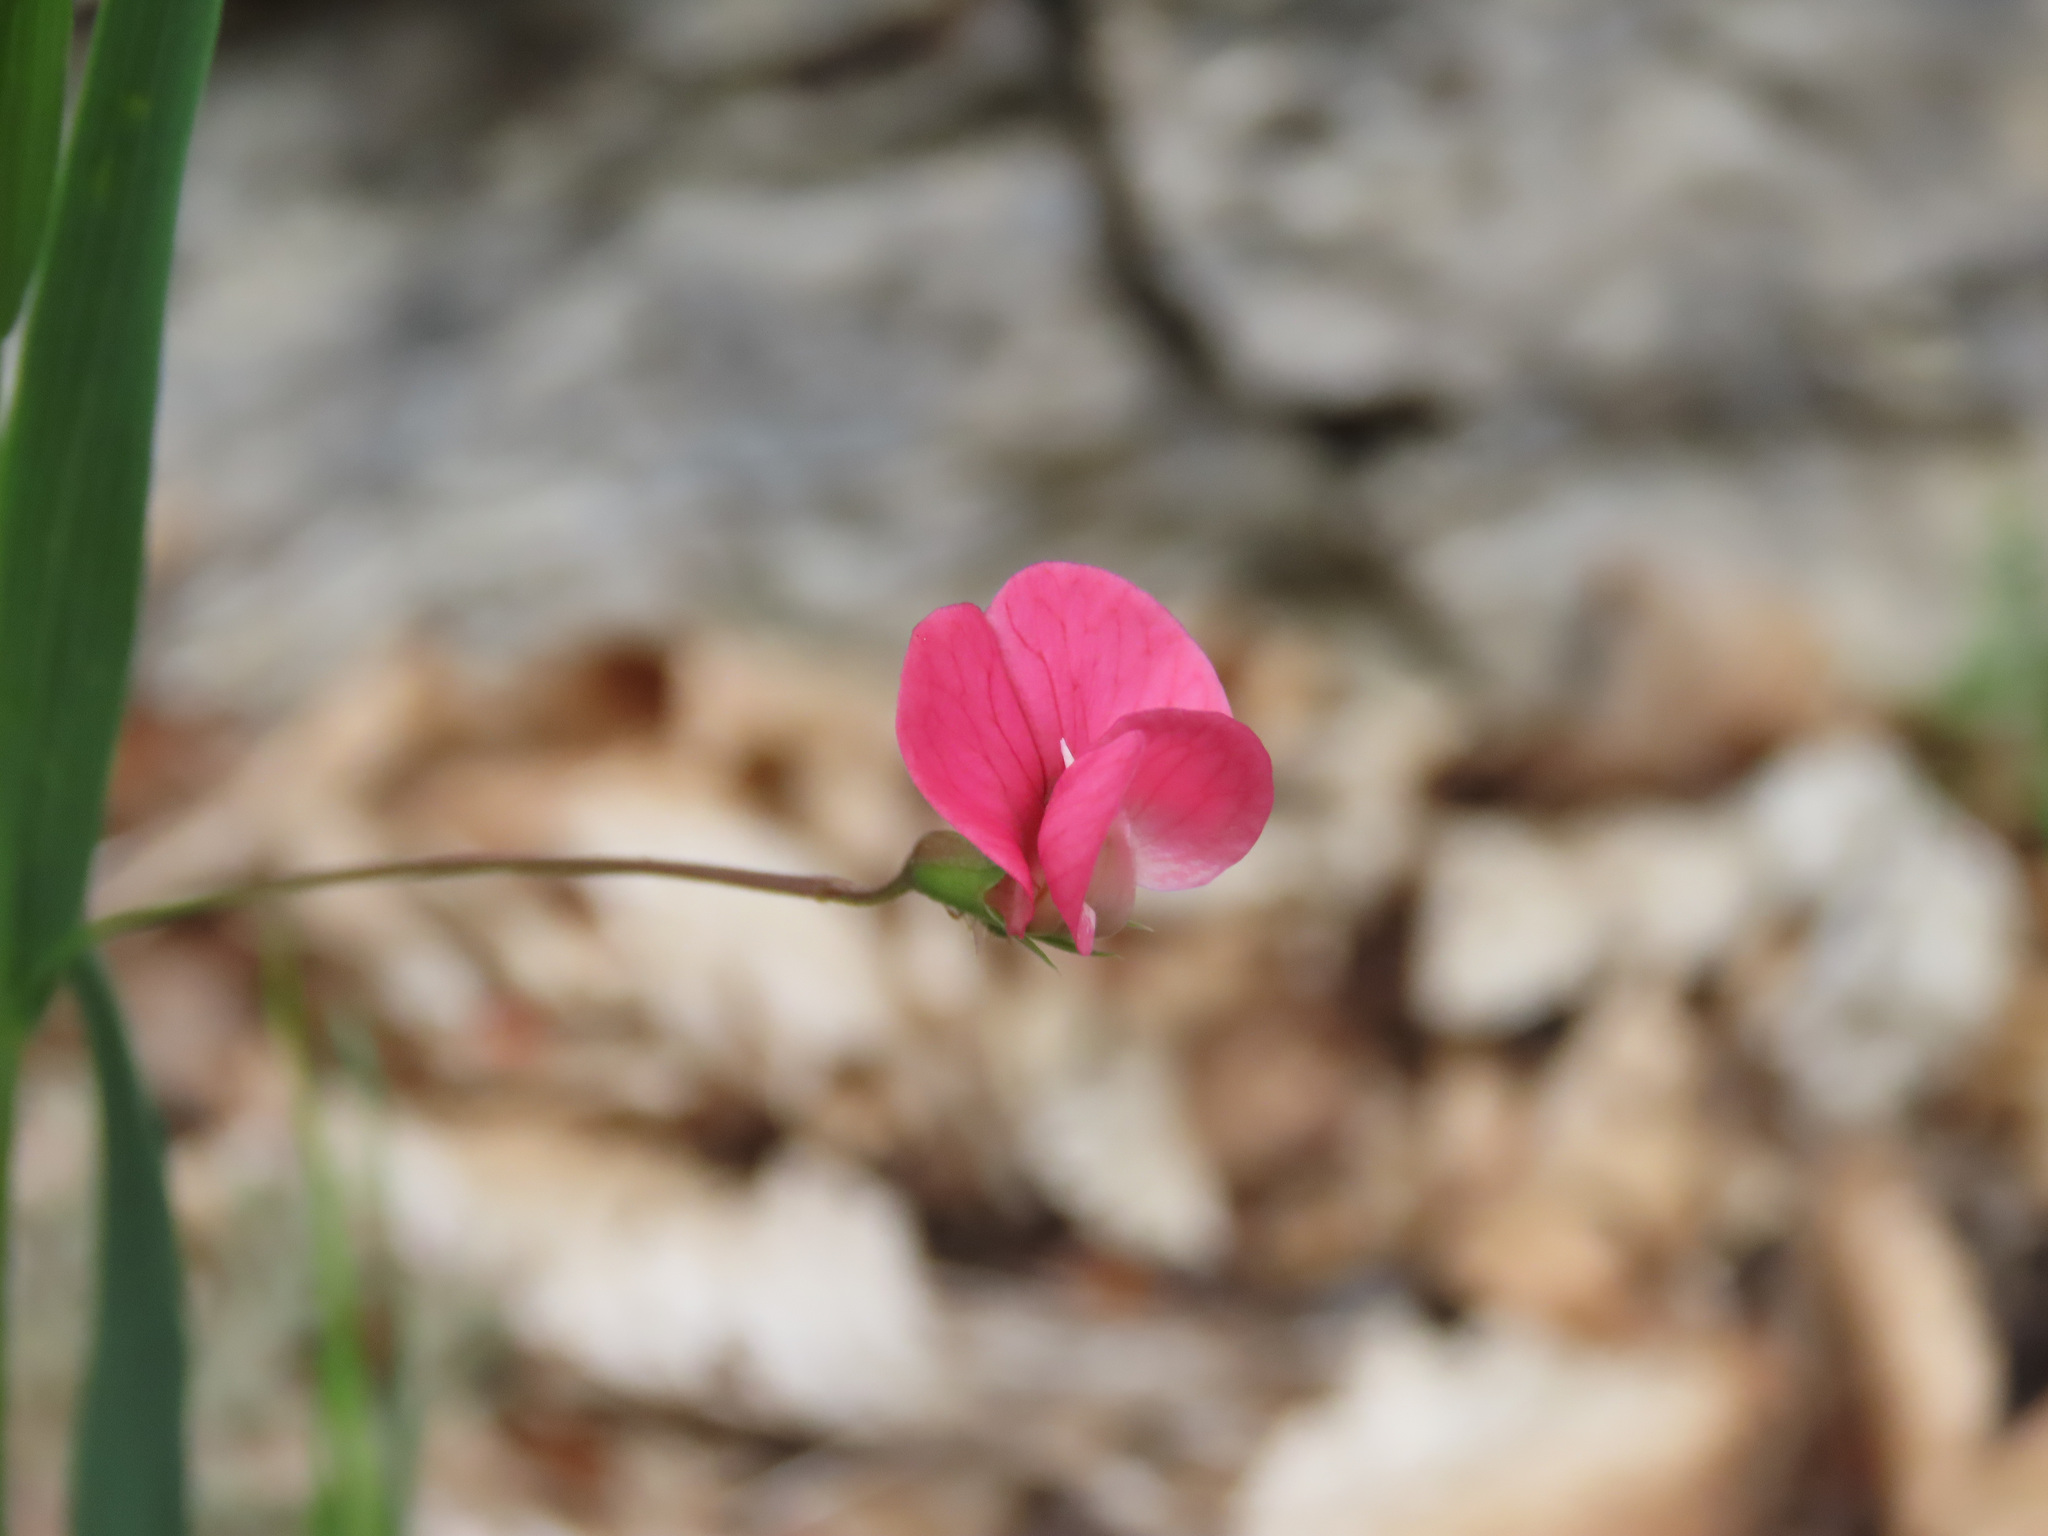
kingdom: Plantae
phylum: Tracheophyta
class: Magnoliopsida
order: Fabales
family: Fabaceae
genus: Lathyrus
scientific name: Lathyrus nissolia
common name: Grass vetchling
